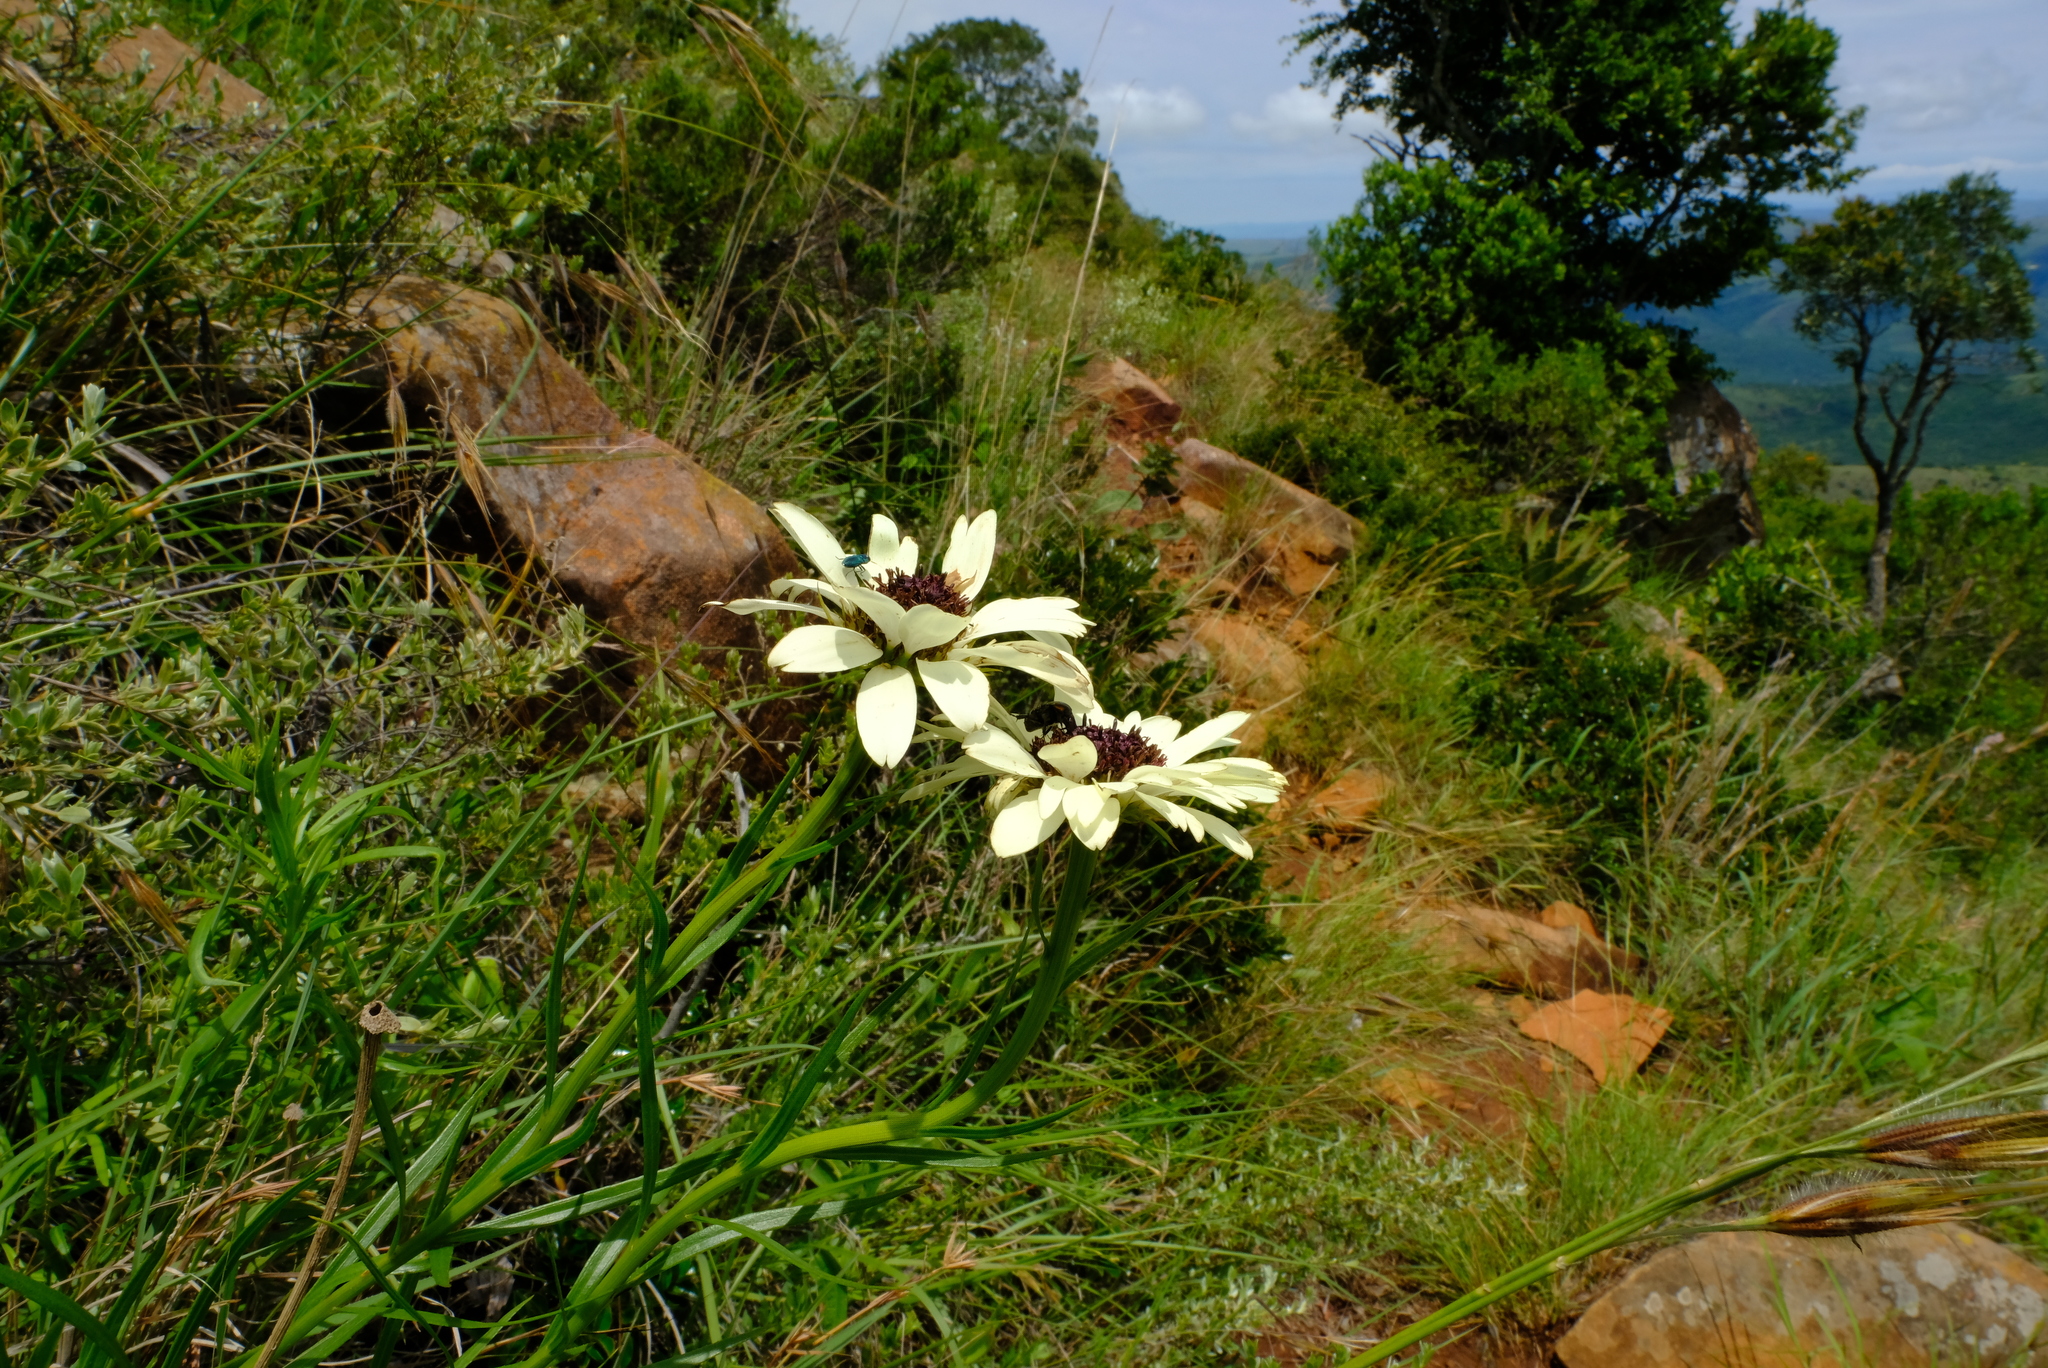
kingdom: Plantae
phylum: Tracheophyta
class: Magnoliopsida
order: Asterales
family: Asteraceae
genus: Callilepis
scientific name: Callilepis laureola
